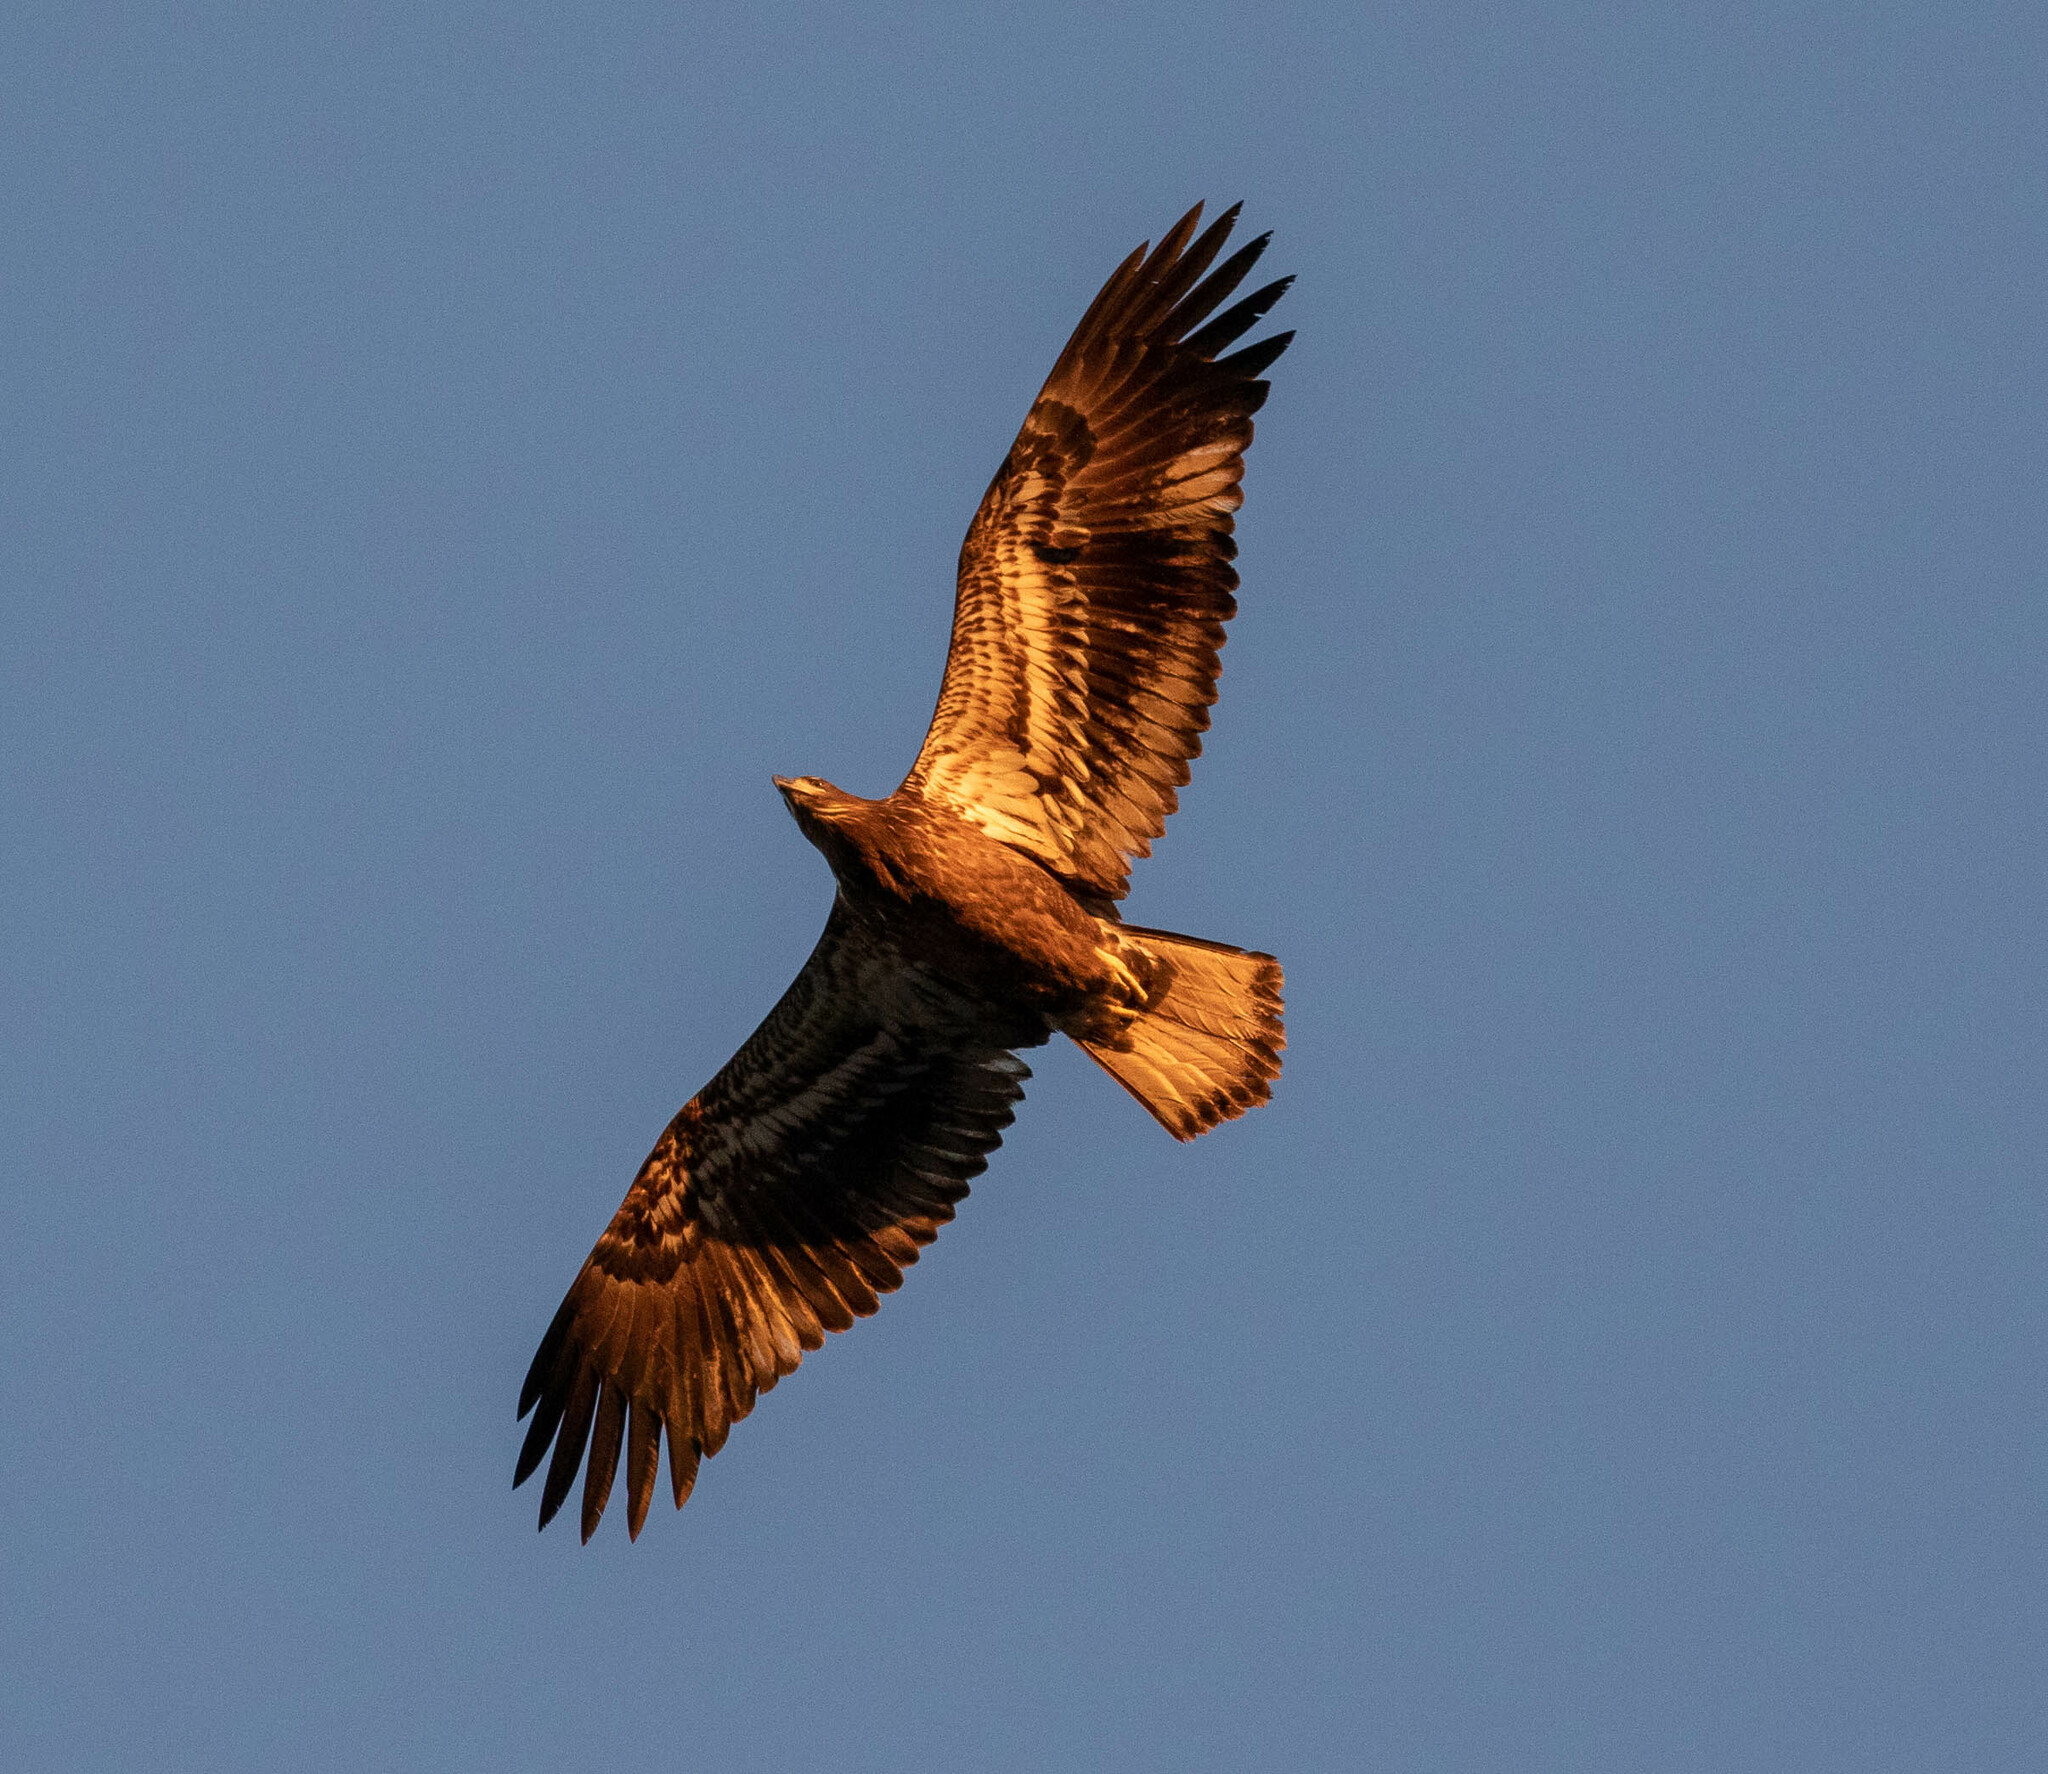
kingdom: Animalia
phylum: Chordata
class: Aves
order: Accipitriformes
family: Accipitridae
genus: Haliaeetus
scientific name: Haliaeetus leucocephalus
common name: Bald eagle
